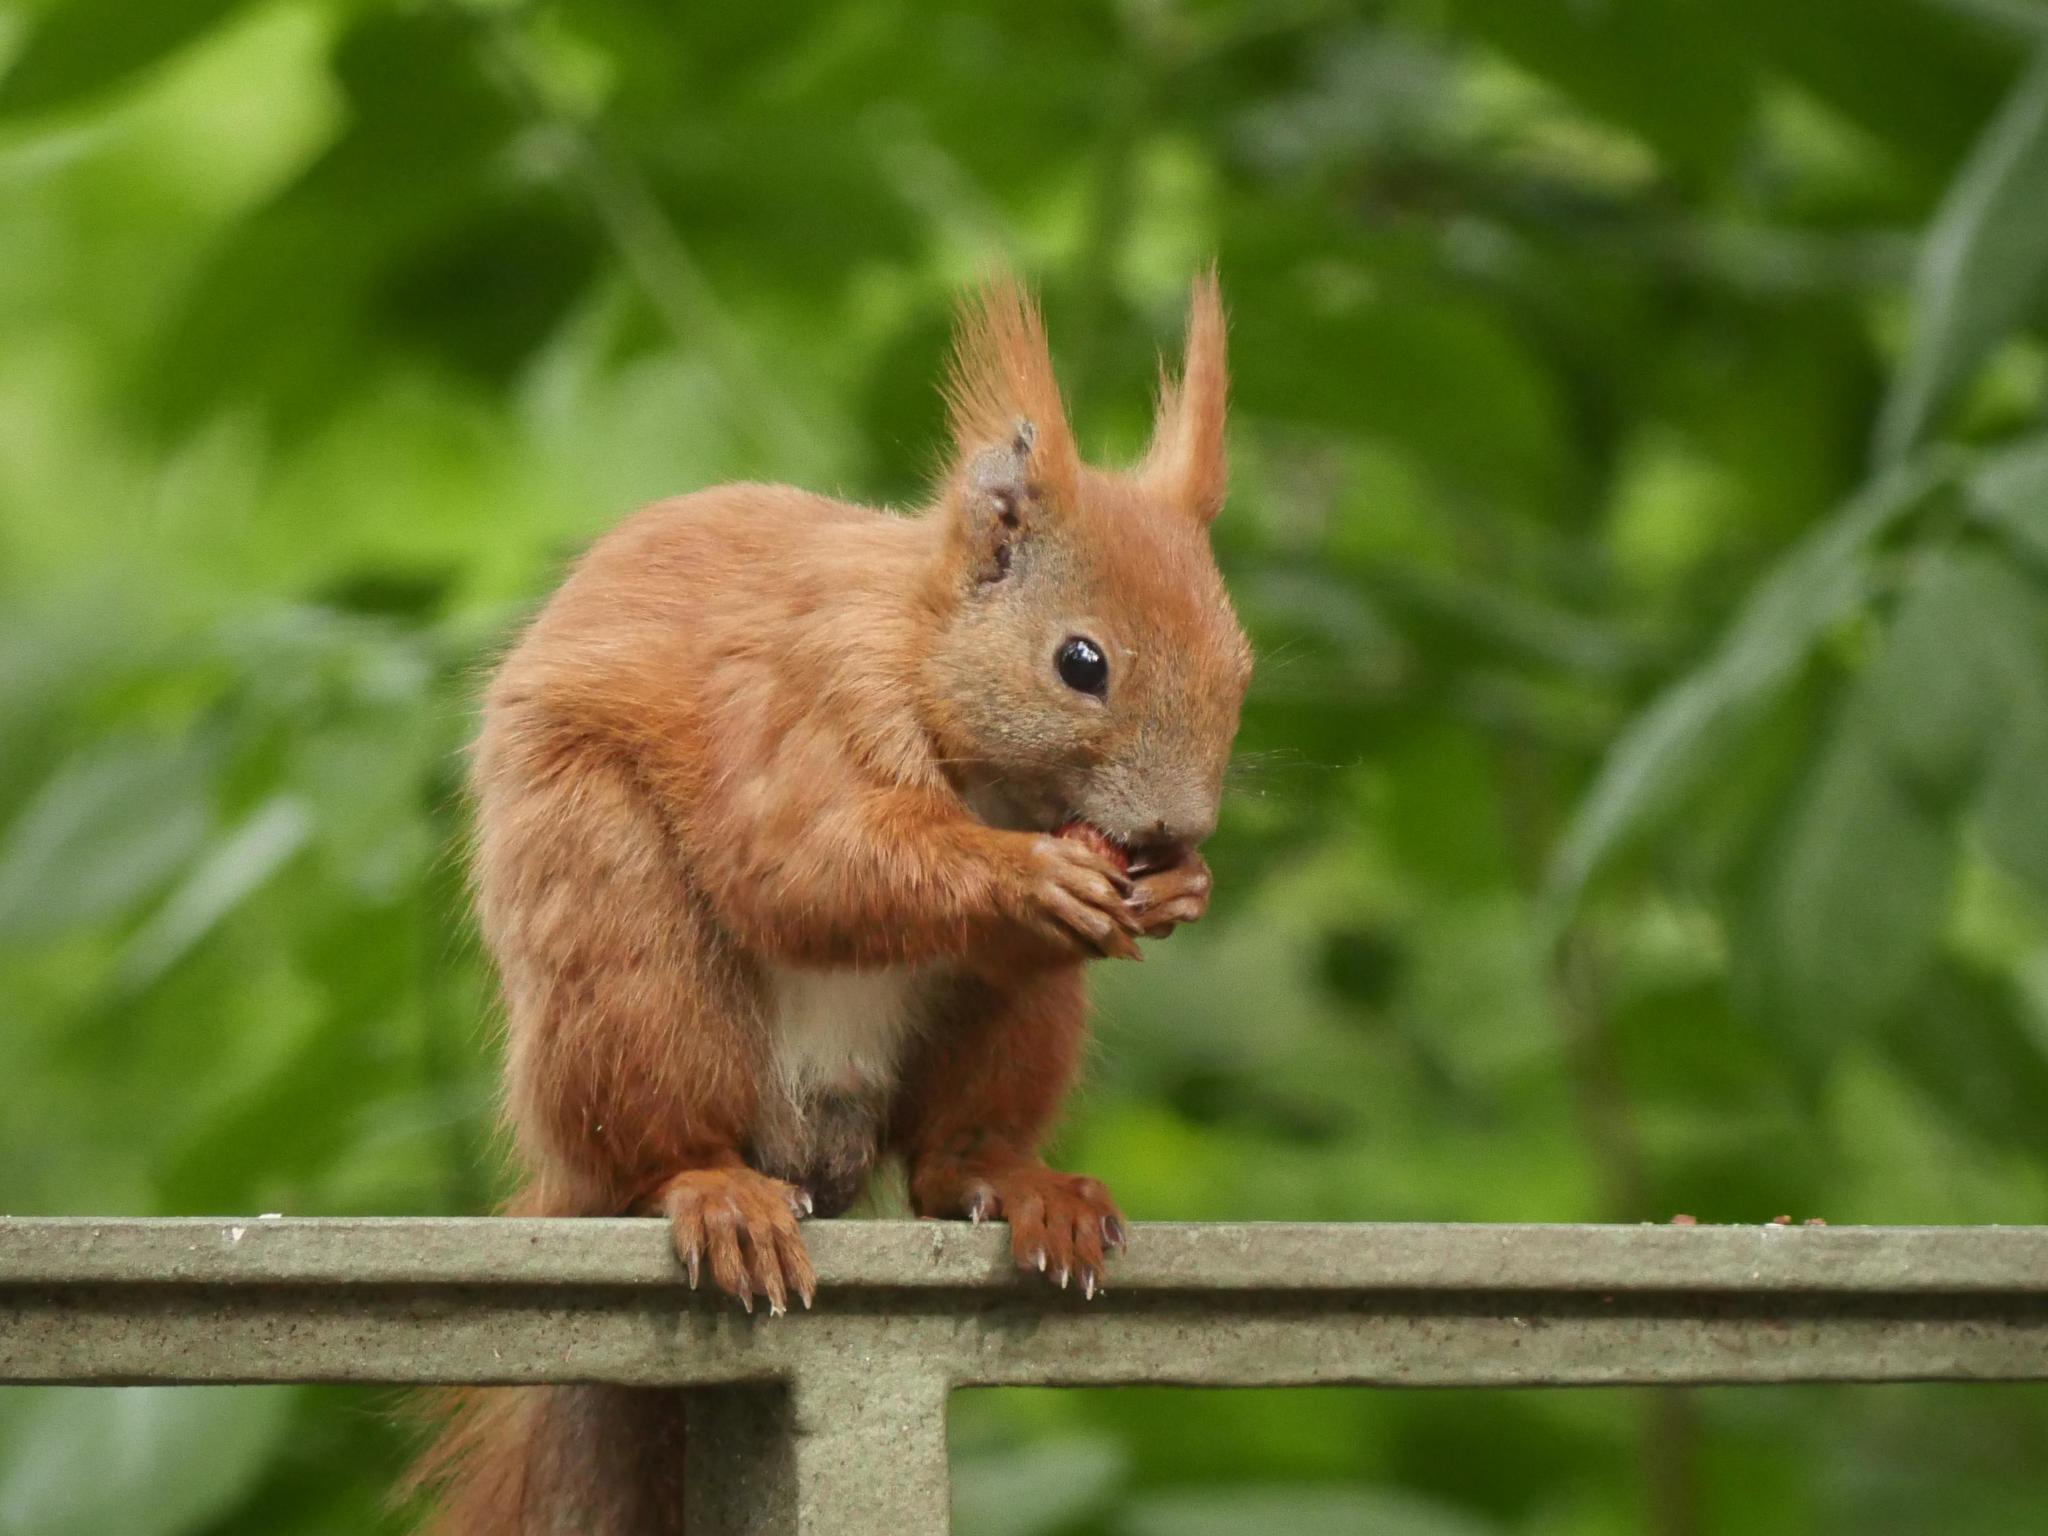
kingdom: Animalia
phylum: Chordata
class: Mammalia
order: Rodentia
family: Sciuridae
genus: Sciurus
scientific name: Sciurus vulgaris
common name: Eurasian red squirrel
